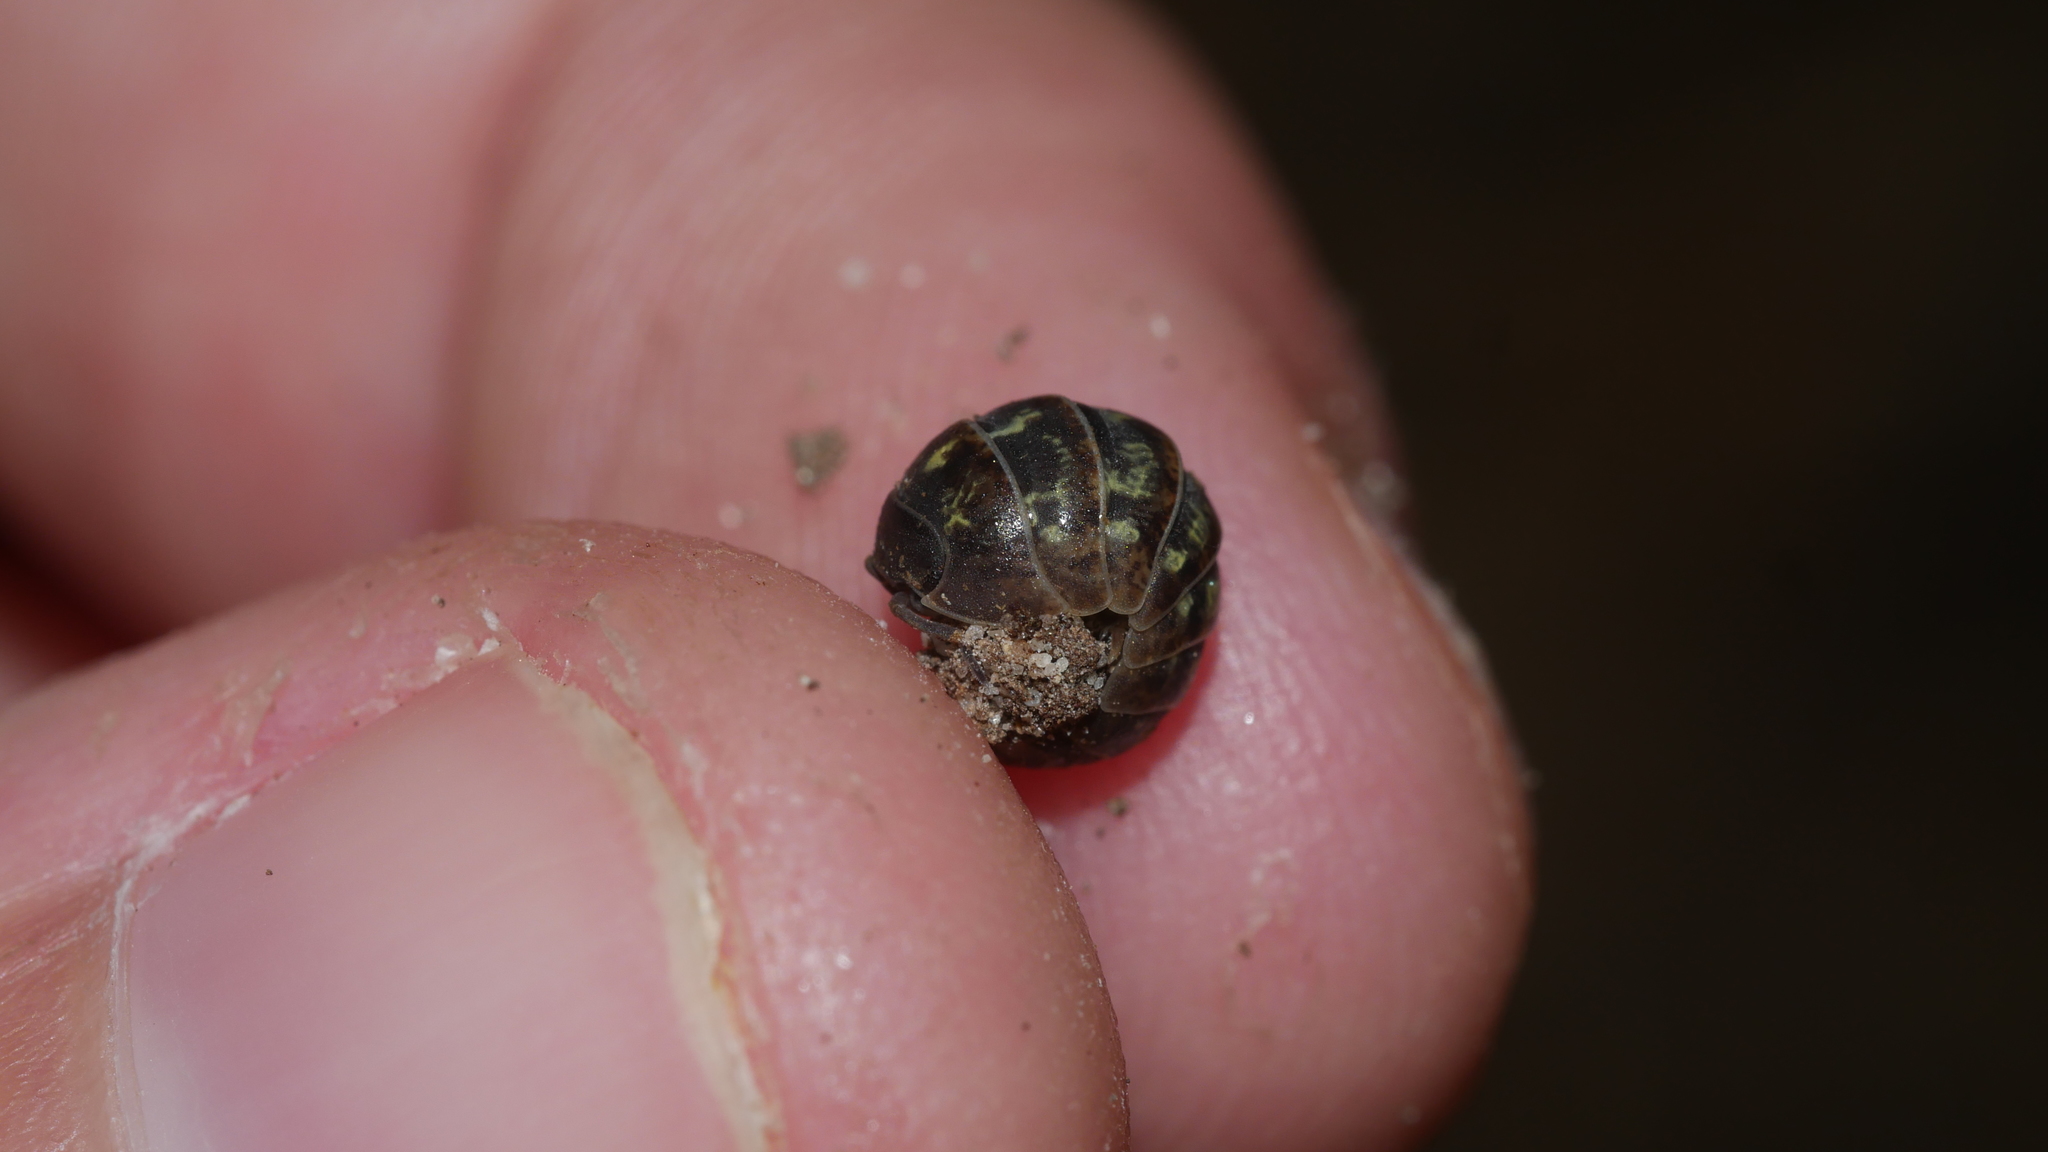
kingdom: Animalia
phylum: Arthropoda
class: Malacostraca
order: Isopoda
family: Armadillidiidae
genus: Armadillidium
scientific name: Armadillidium vulgare
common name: Common pill woodlouse
